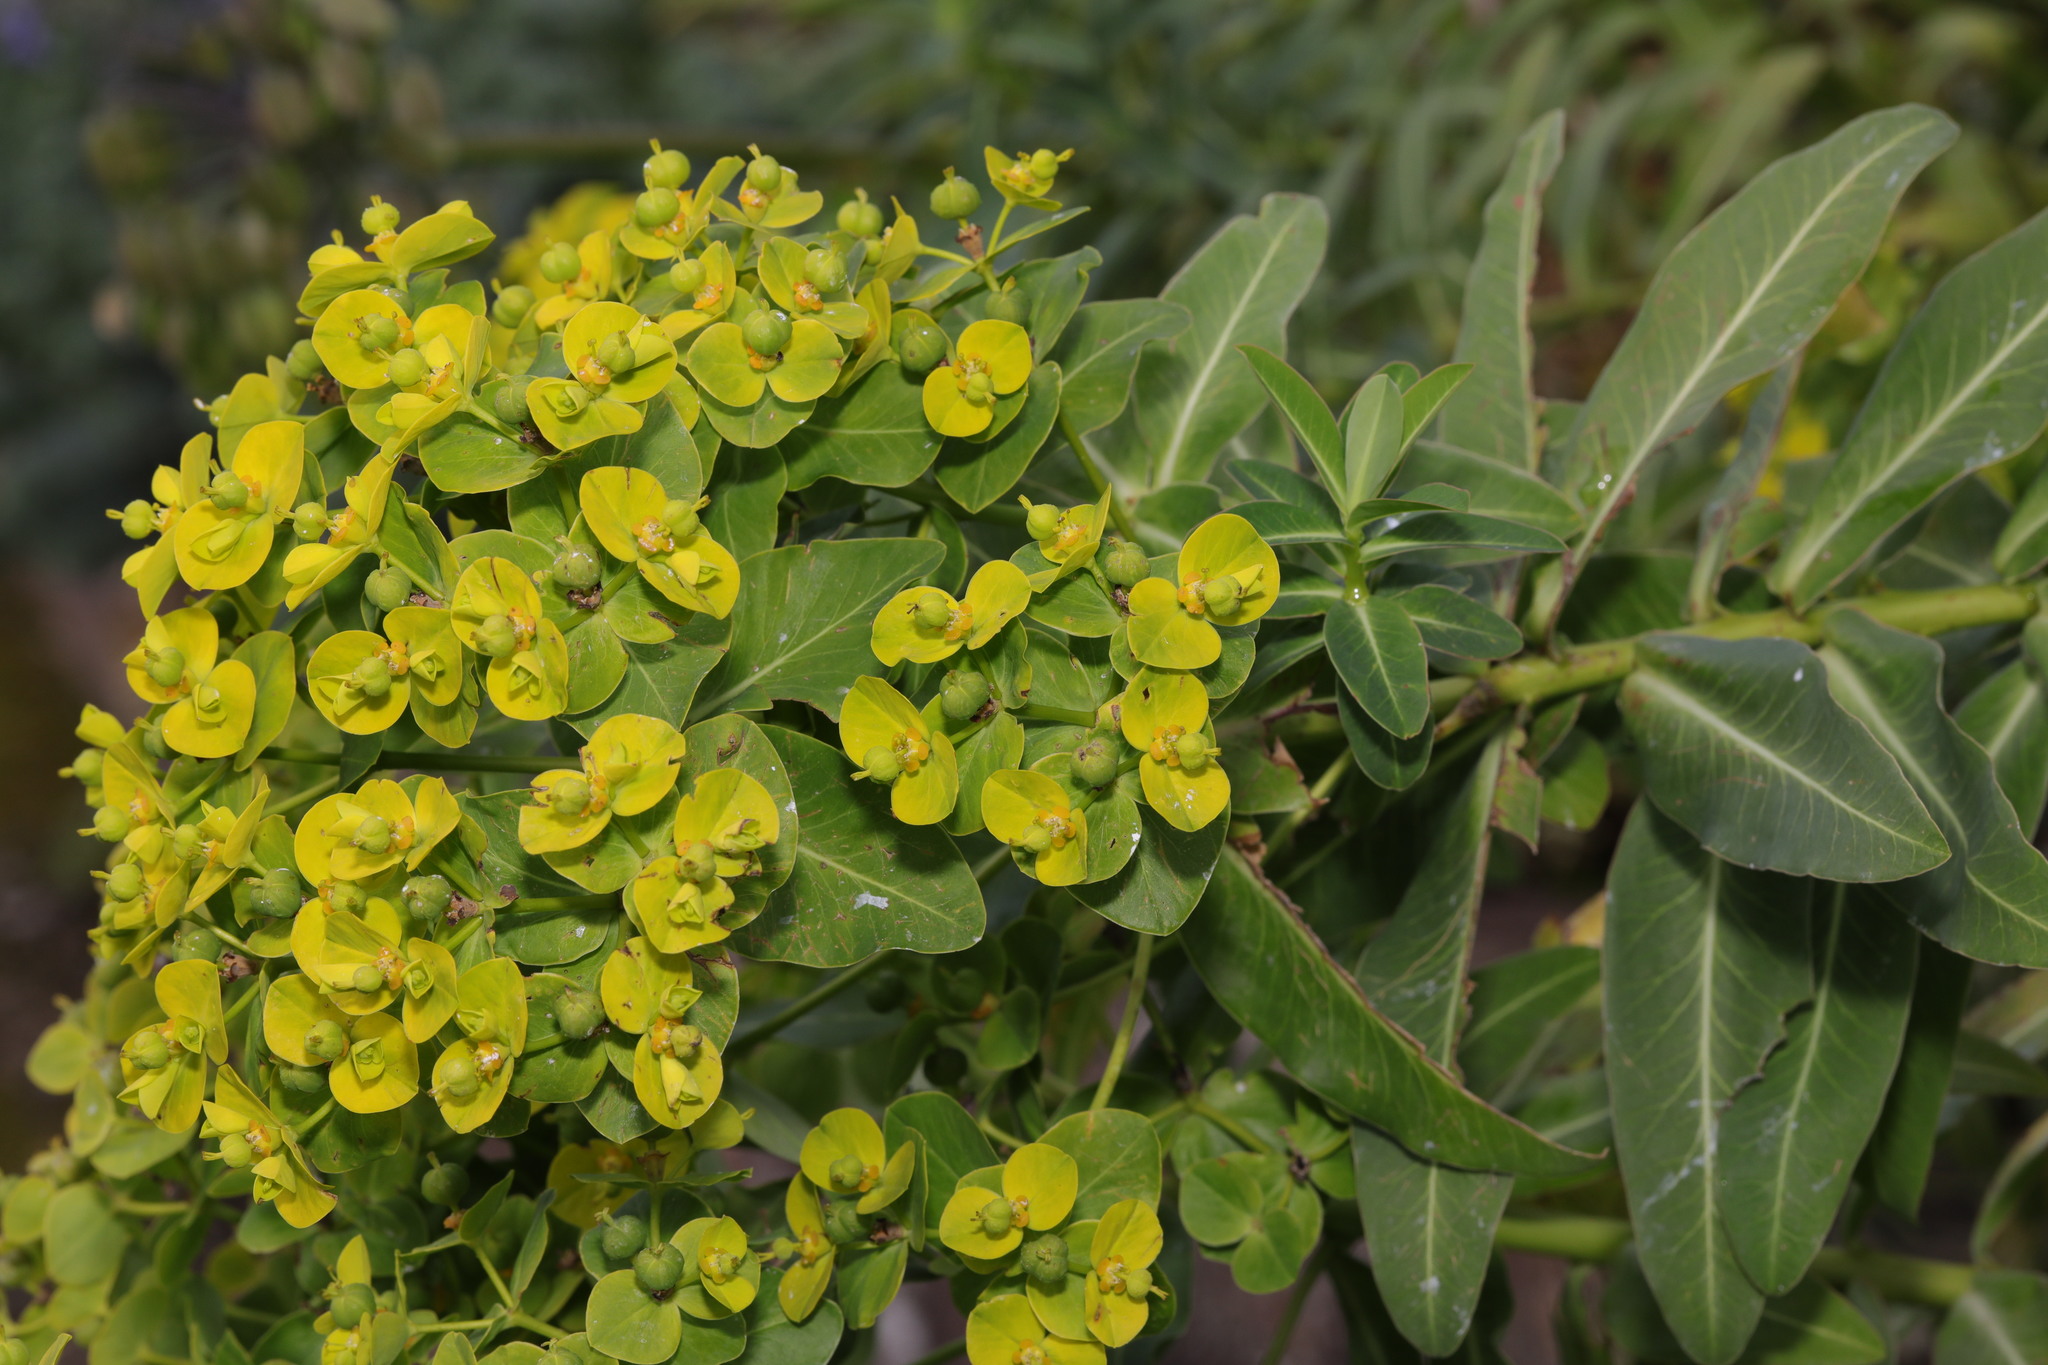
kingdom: Plantae
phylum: Tracheophyta
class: Magnoliopsida
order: Malpighiales
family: Euphorbiaceae
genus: Euphorbia
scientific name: Euphorbia oblongata
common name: Balkan spurge
